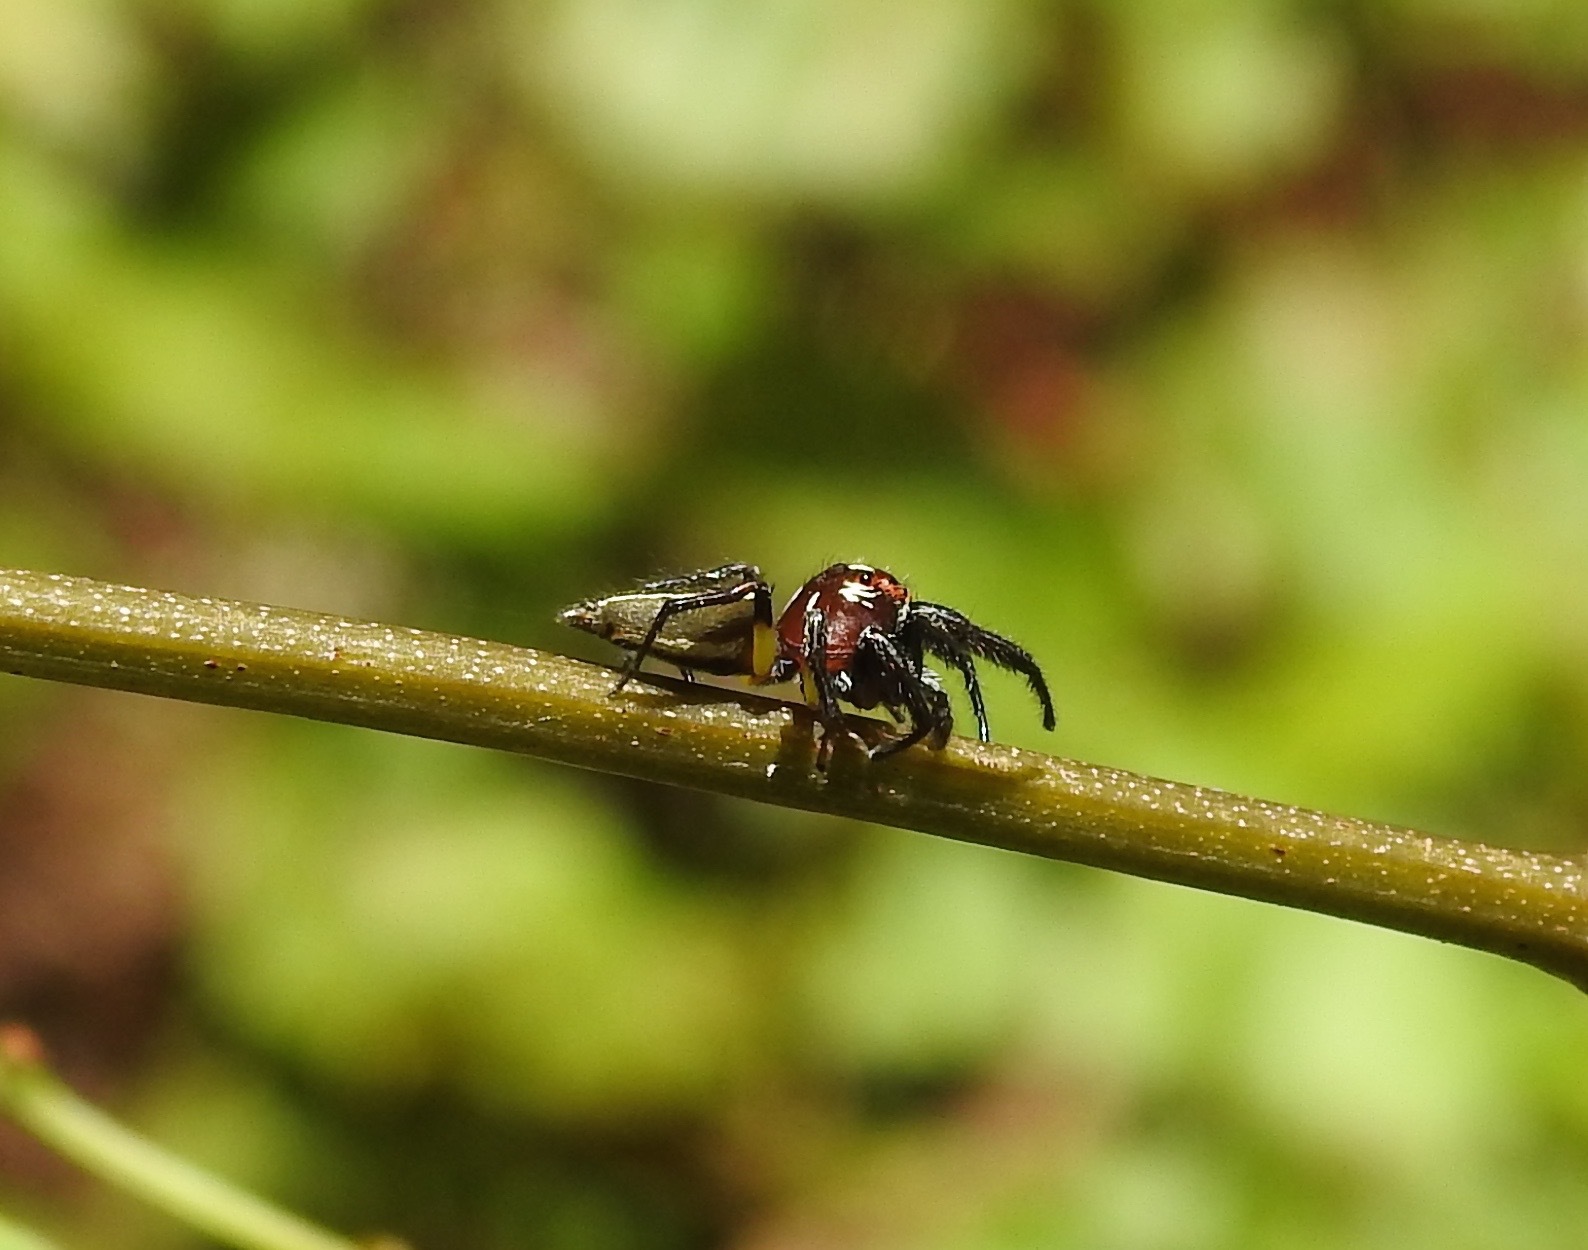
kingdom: Animalia
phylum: Arthropoda
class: Arachnida
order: Araneae
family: Salticidae
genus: Colonus
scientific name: Colonus sylvanus
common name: Jumping spiders
